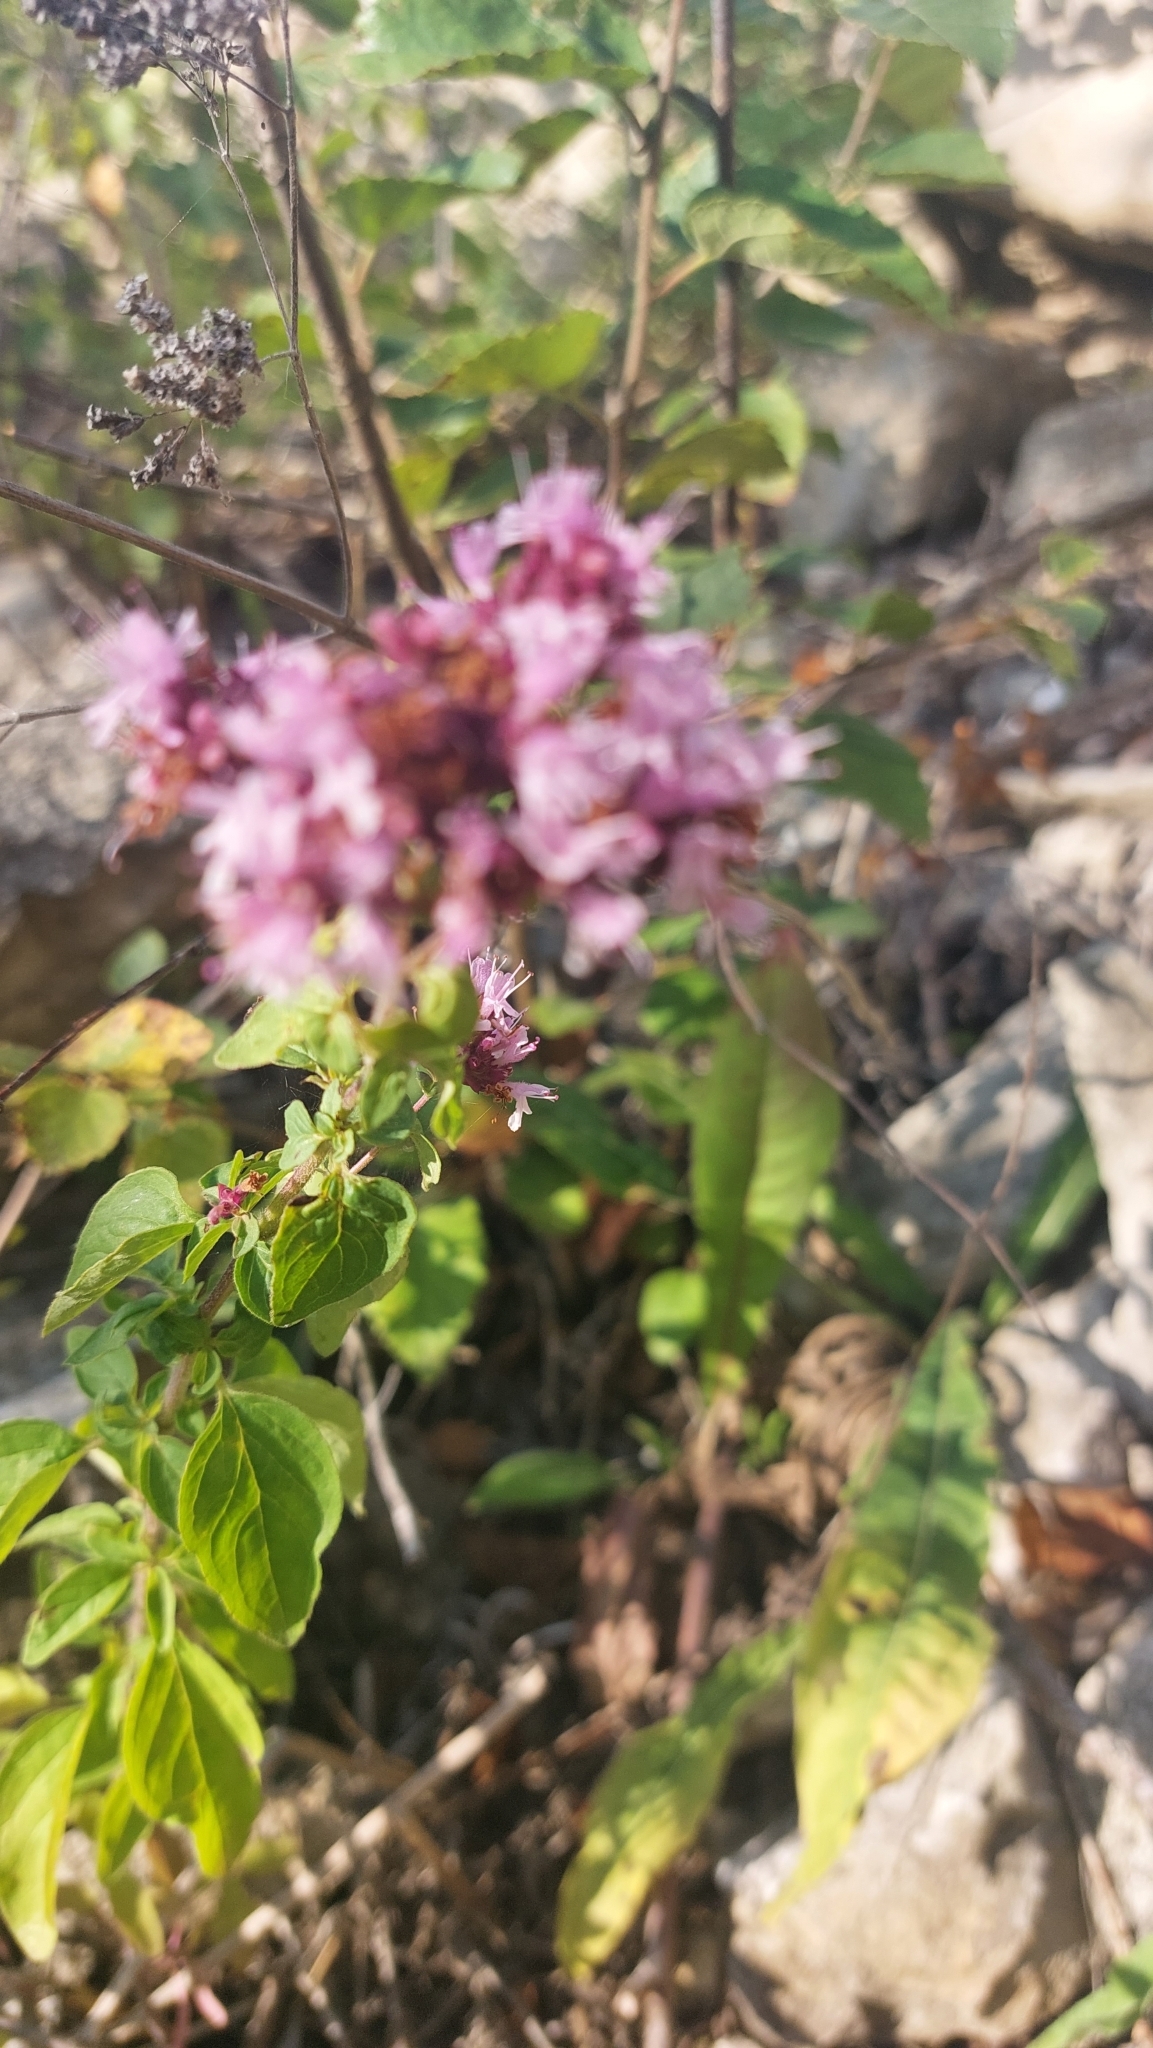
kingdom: Plantae
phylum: Tracheophyta
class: Magnoliopsida
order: Lamiales
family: Lamiaceae
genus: Origanum
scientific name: Origanum vulgare
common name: Wild marjoram
